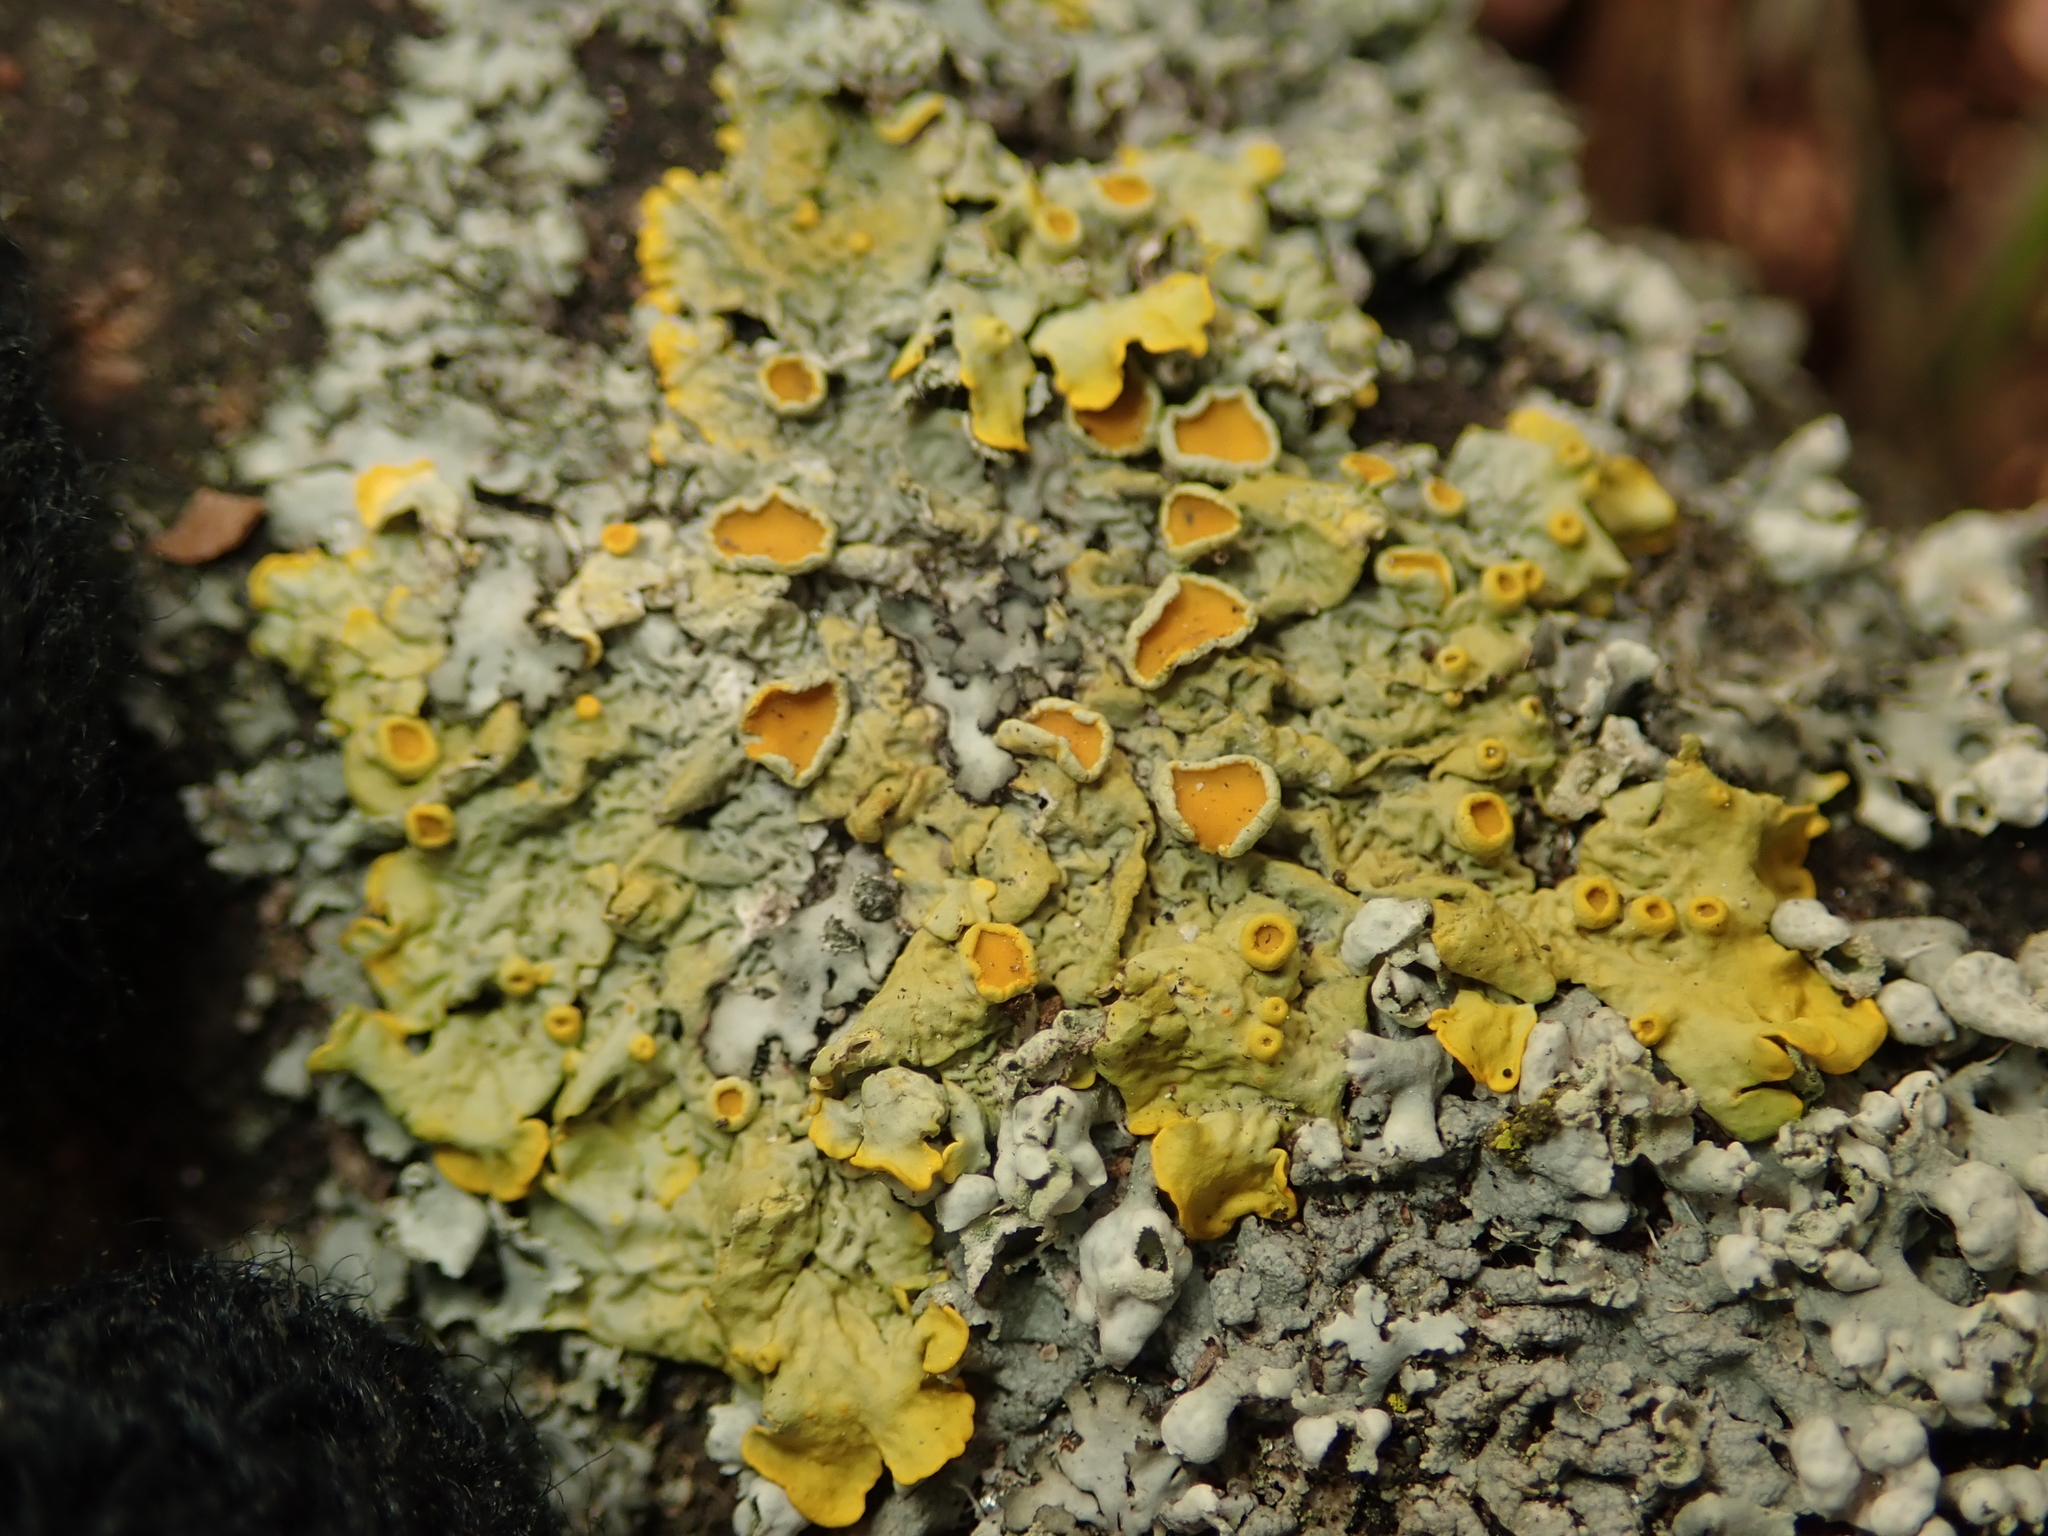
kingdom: Fungi
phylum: Ascomycota
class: Lecanoromycetes
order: Teloschistales
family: Teloschistaceae
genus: Xanthoria
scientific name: Xanthoria parietina
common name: Common orange lichen
